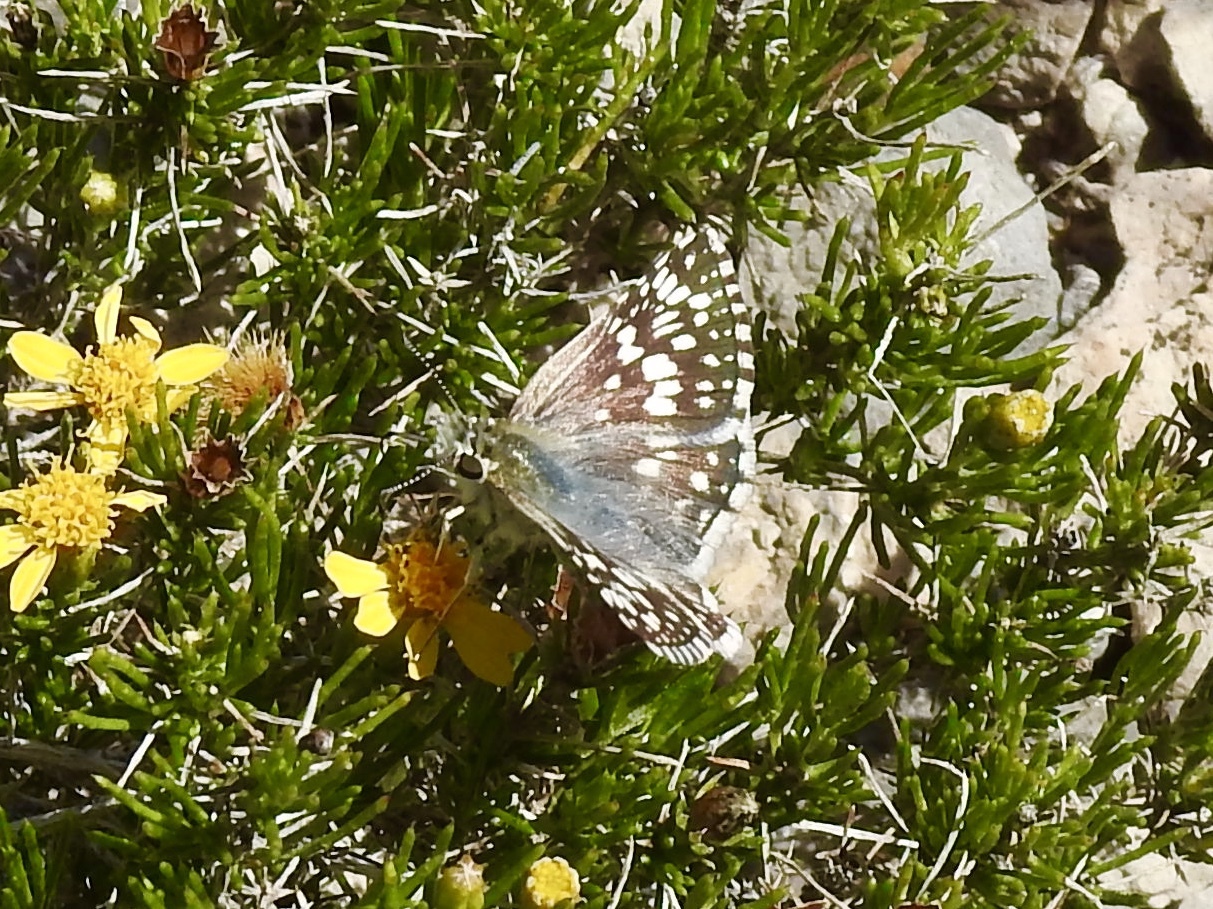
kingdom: Animalia
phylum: Arthropoda
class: Insecta
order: Lepidoptera
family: Hesperiidae
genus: Burnsius
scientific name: Burnsius
